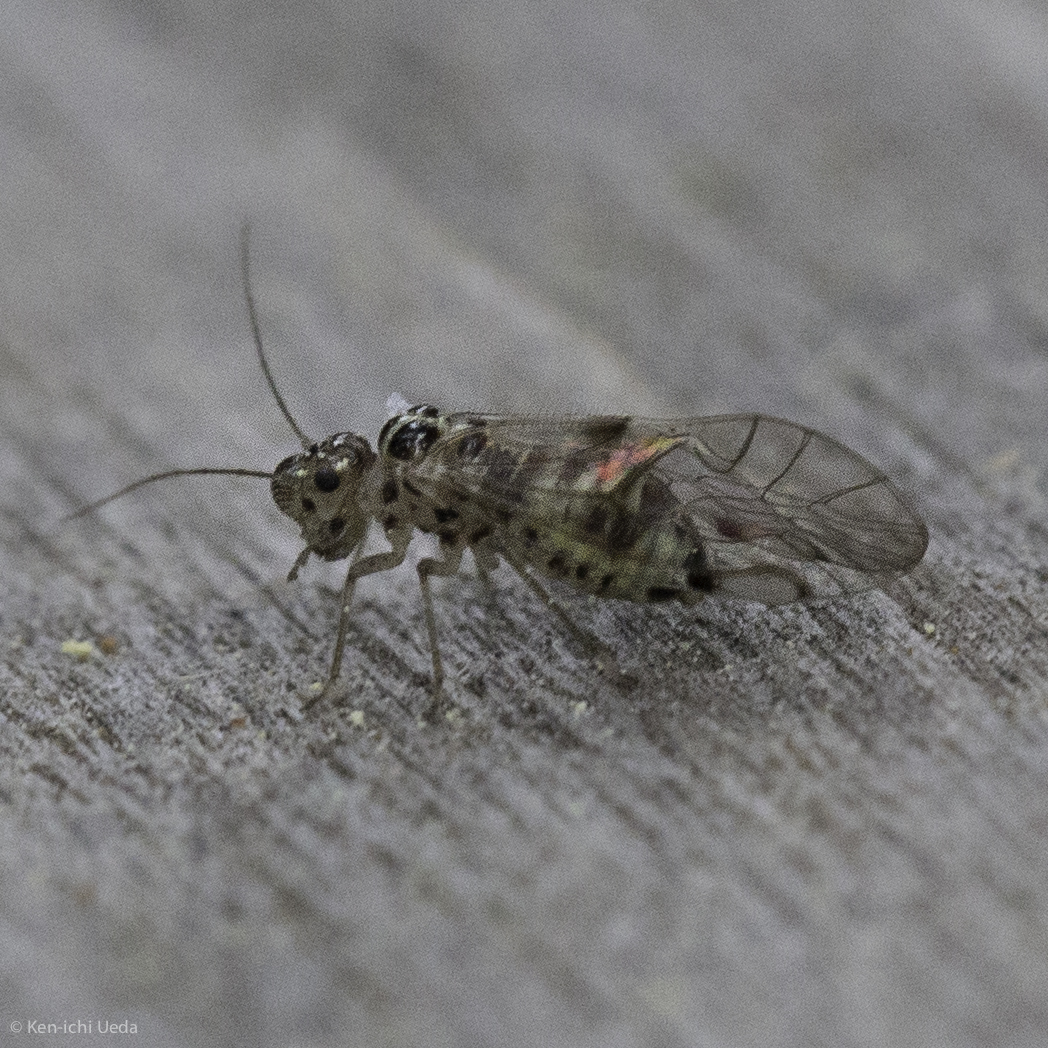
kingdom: Animalia
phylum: Arthropoda
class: Insecta
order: Psocodea
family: Dasydemellidae
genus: Teliapsocus
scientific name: Teliapsocus conterminus
